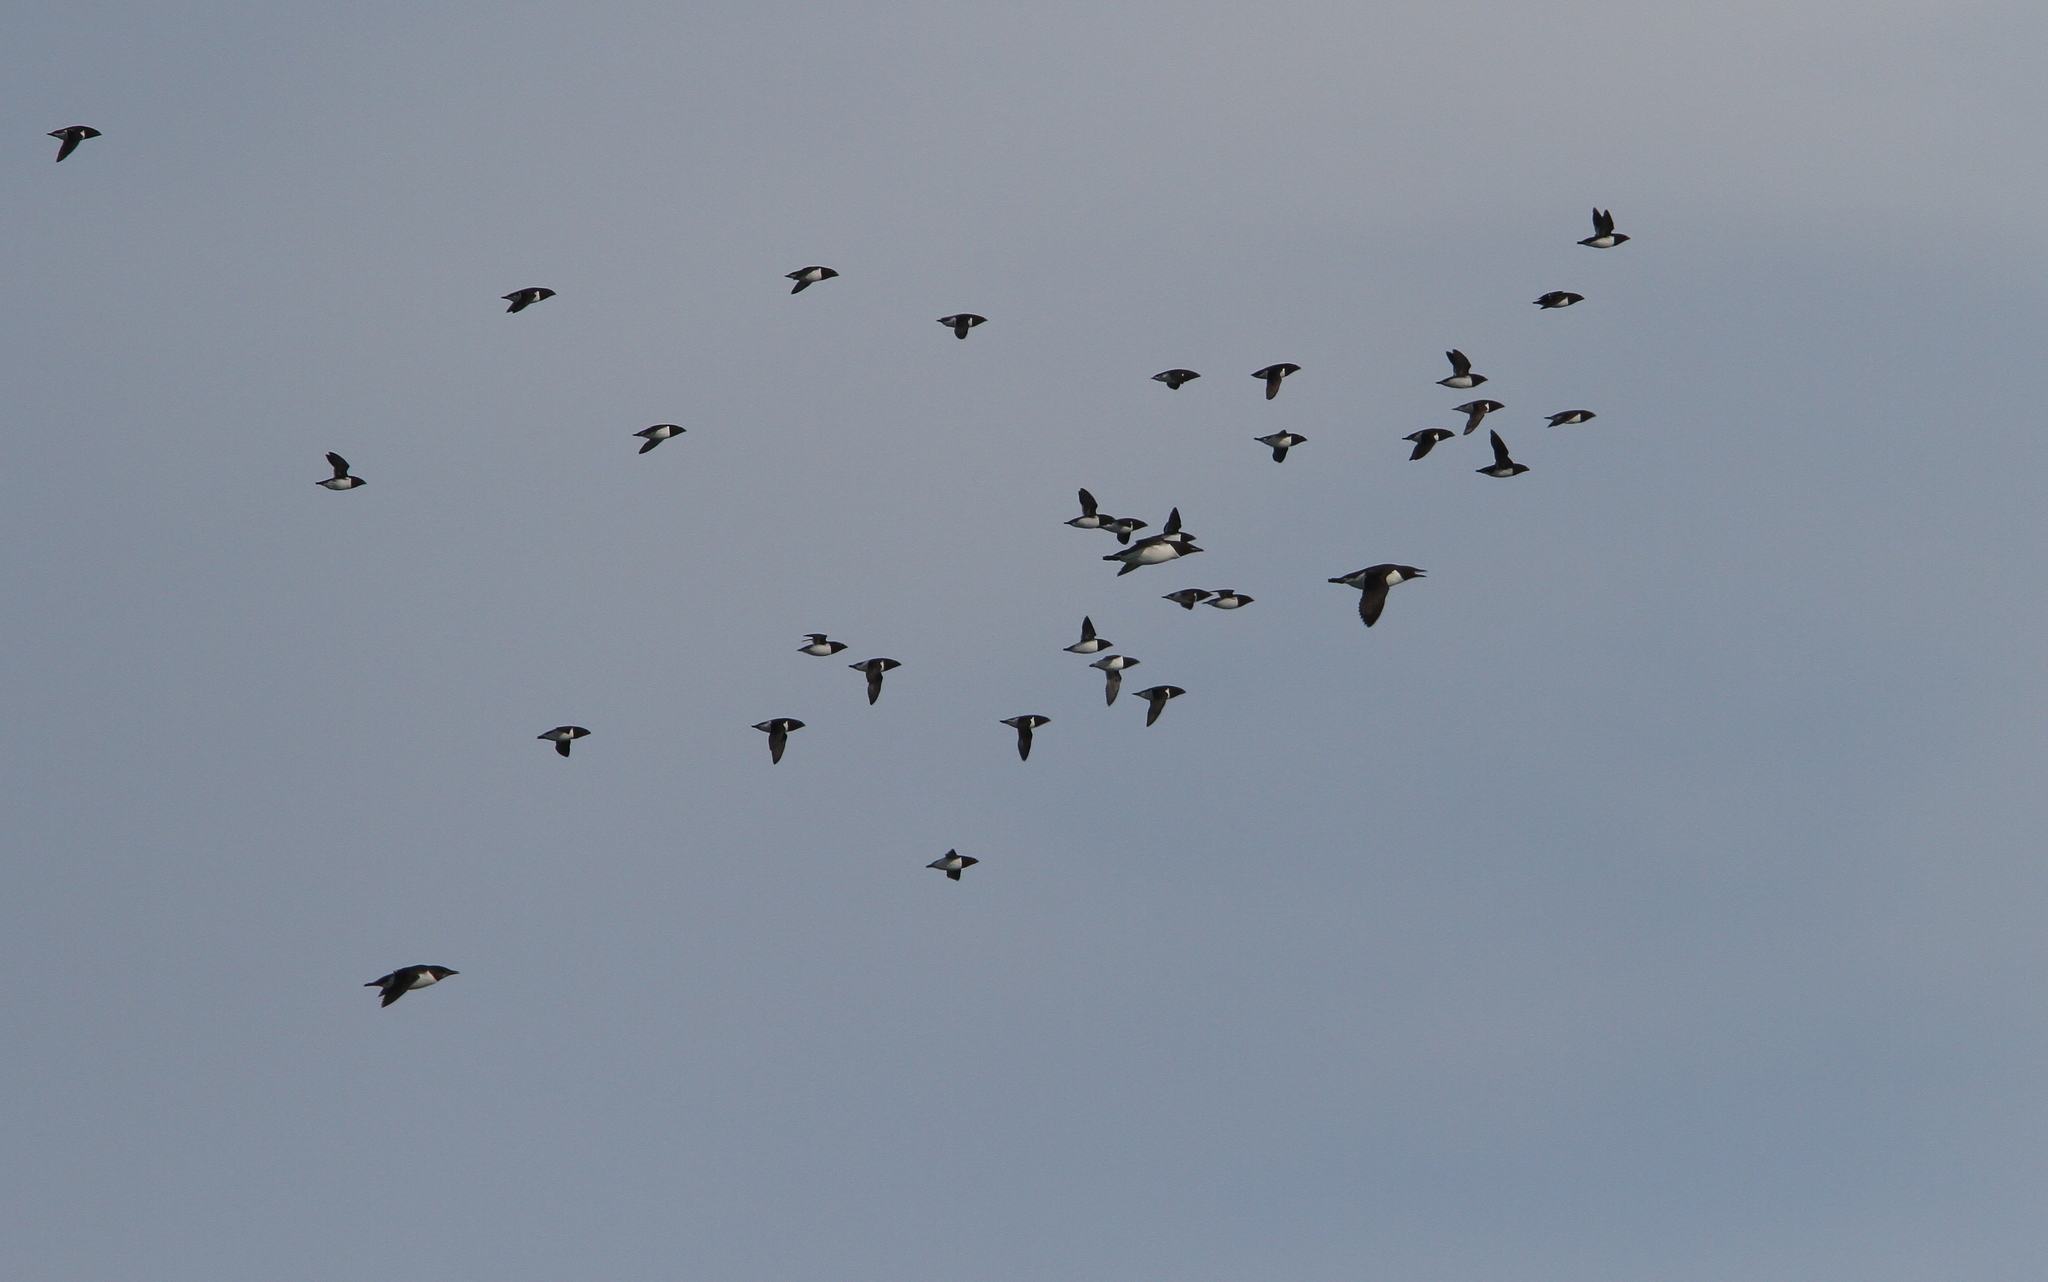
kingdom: Animalia
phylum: Chordata
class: Aves
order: Charadriiformes
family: Alcidae
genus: Alle
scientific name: Alle alle
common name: Little auk
